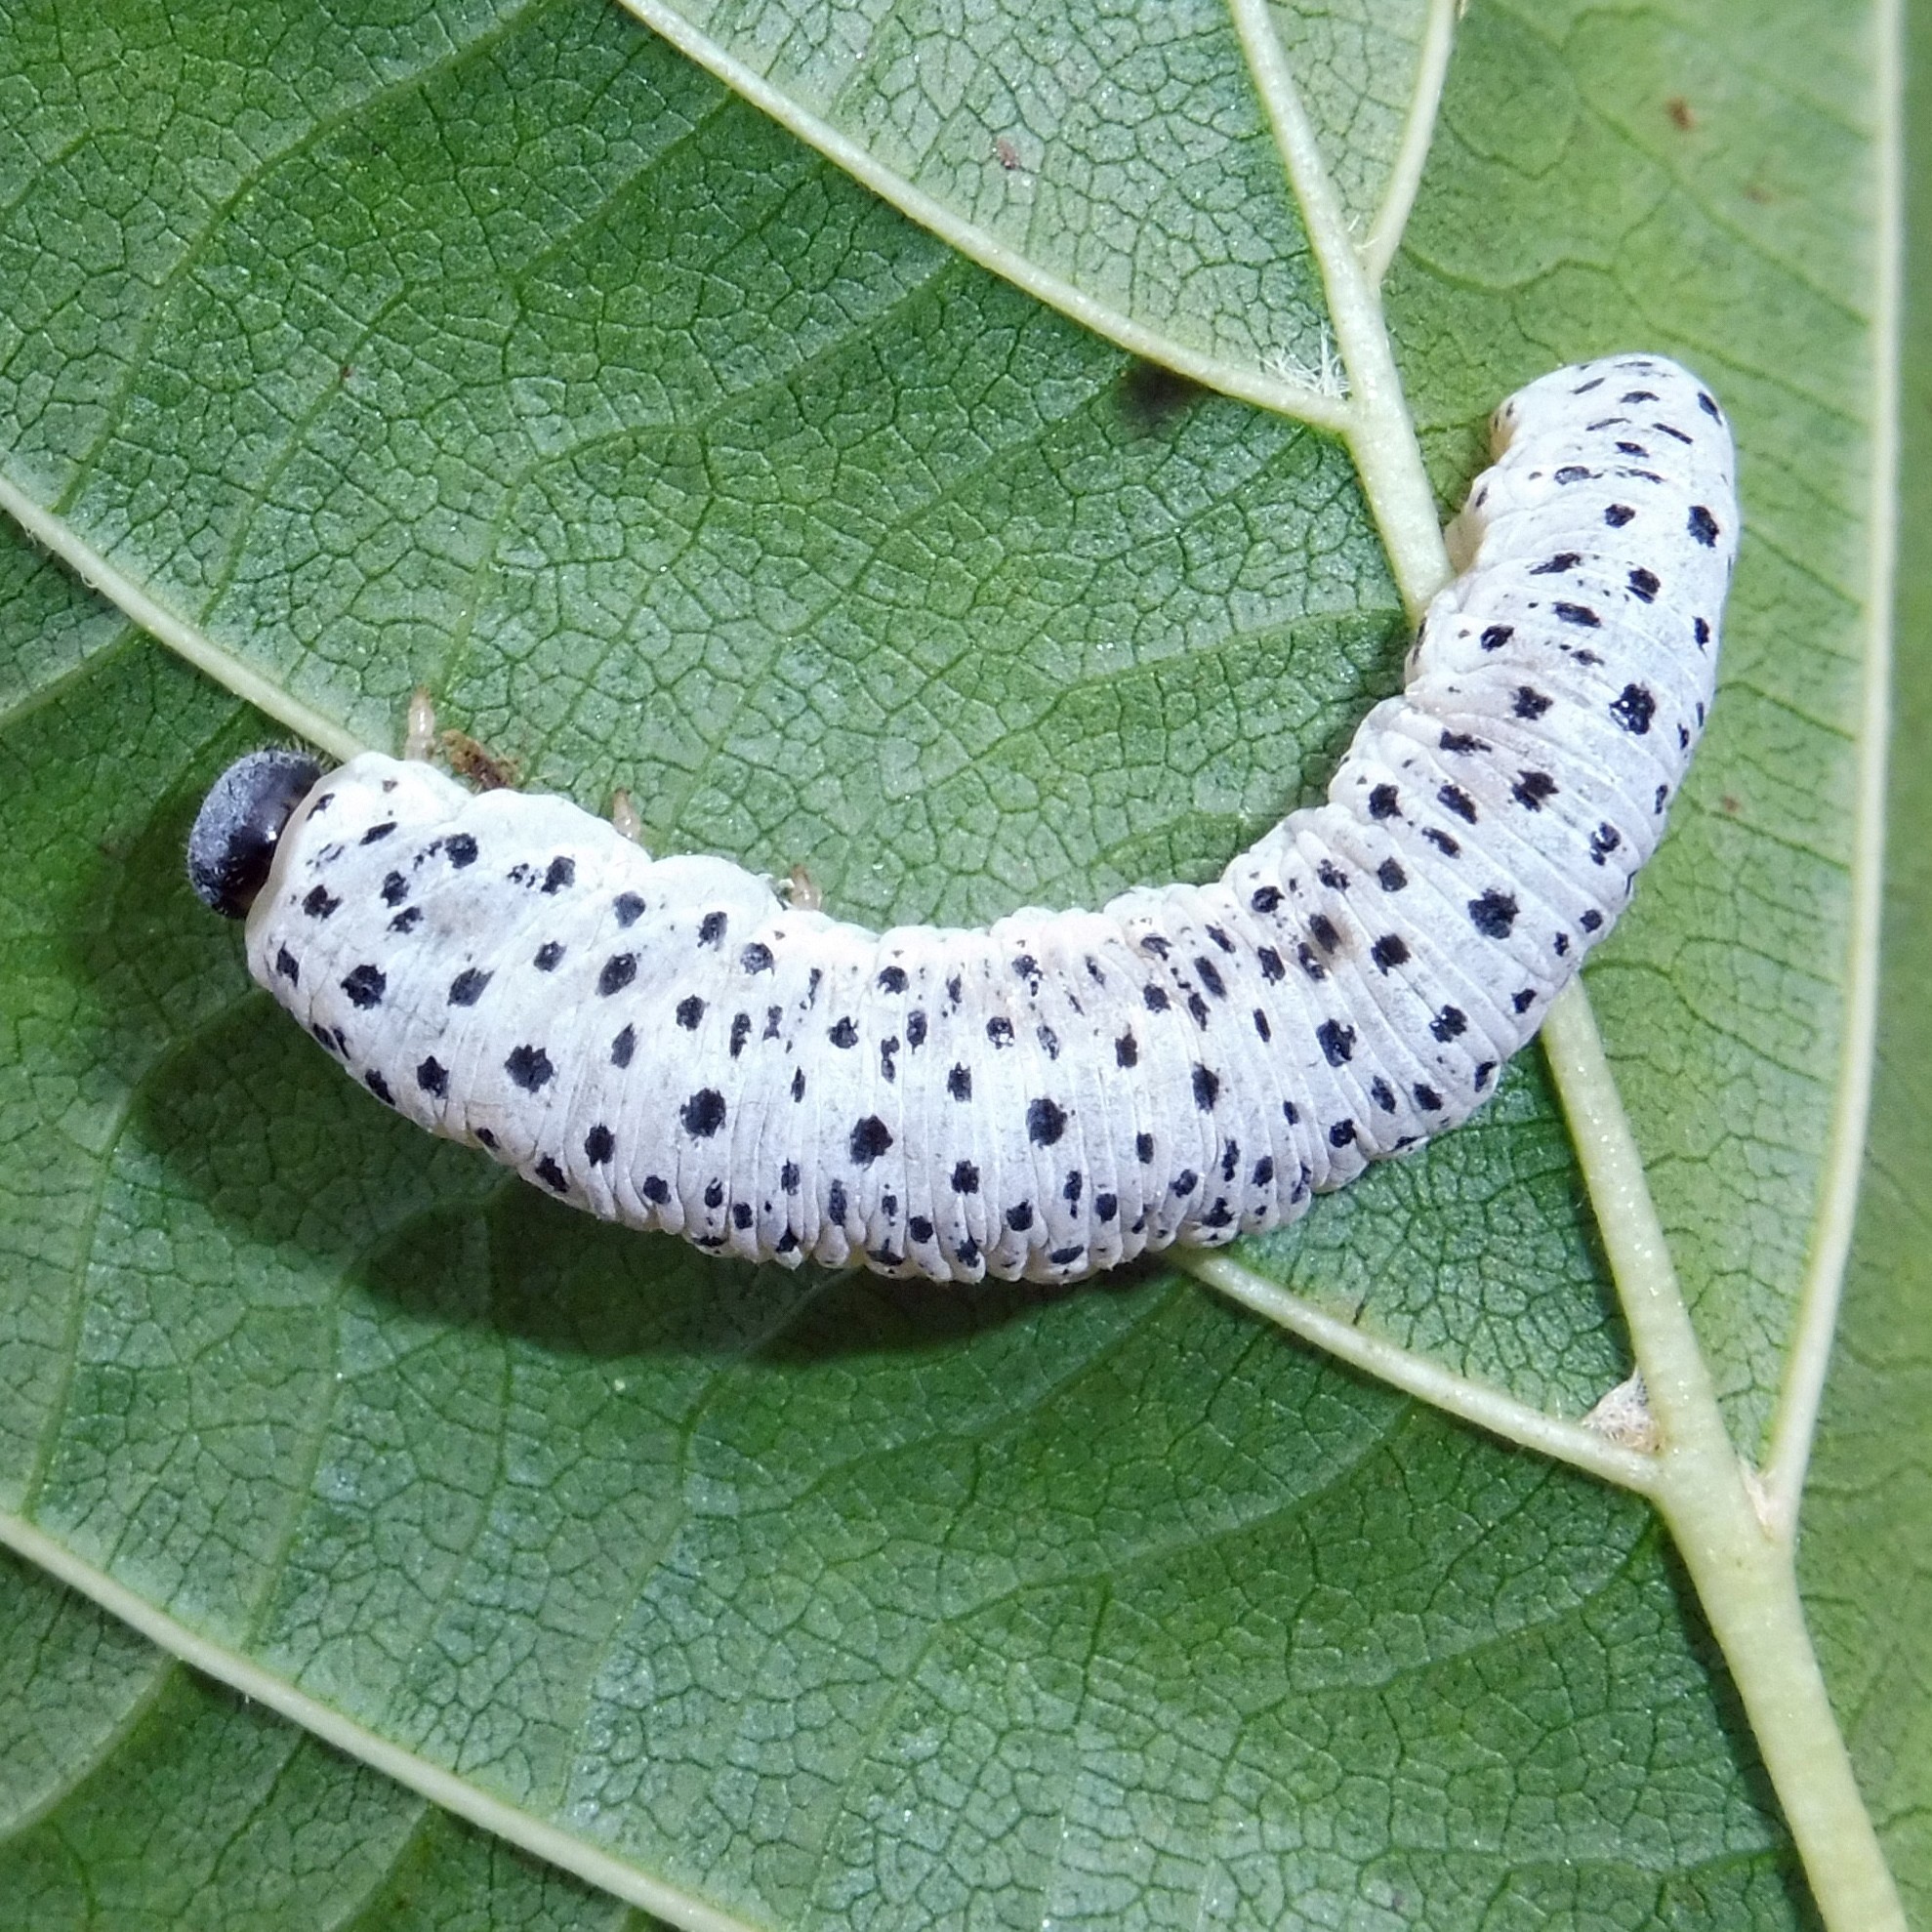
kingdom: Animalia
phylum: Arthropoda
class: Insecta
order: Hymenoptera
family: Tenthredinidae
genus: Tenthredo
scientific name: Tenthredo scrophulariae
